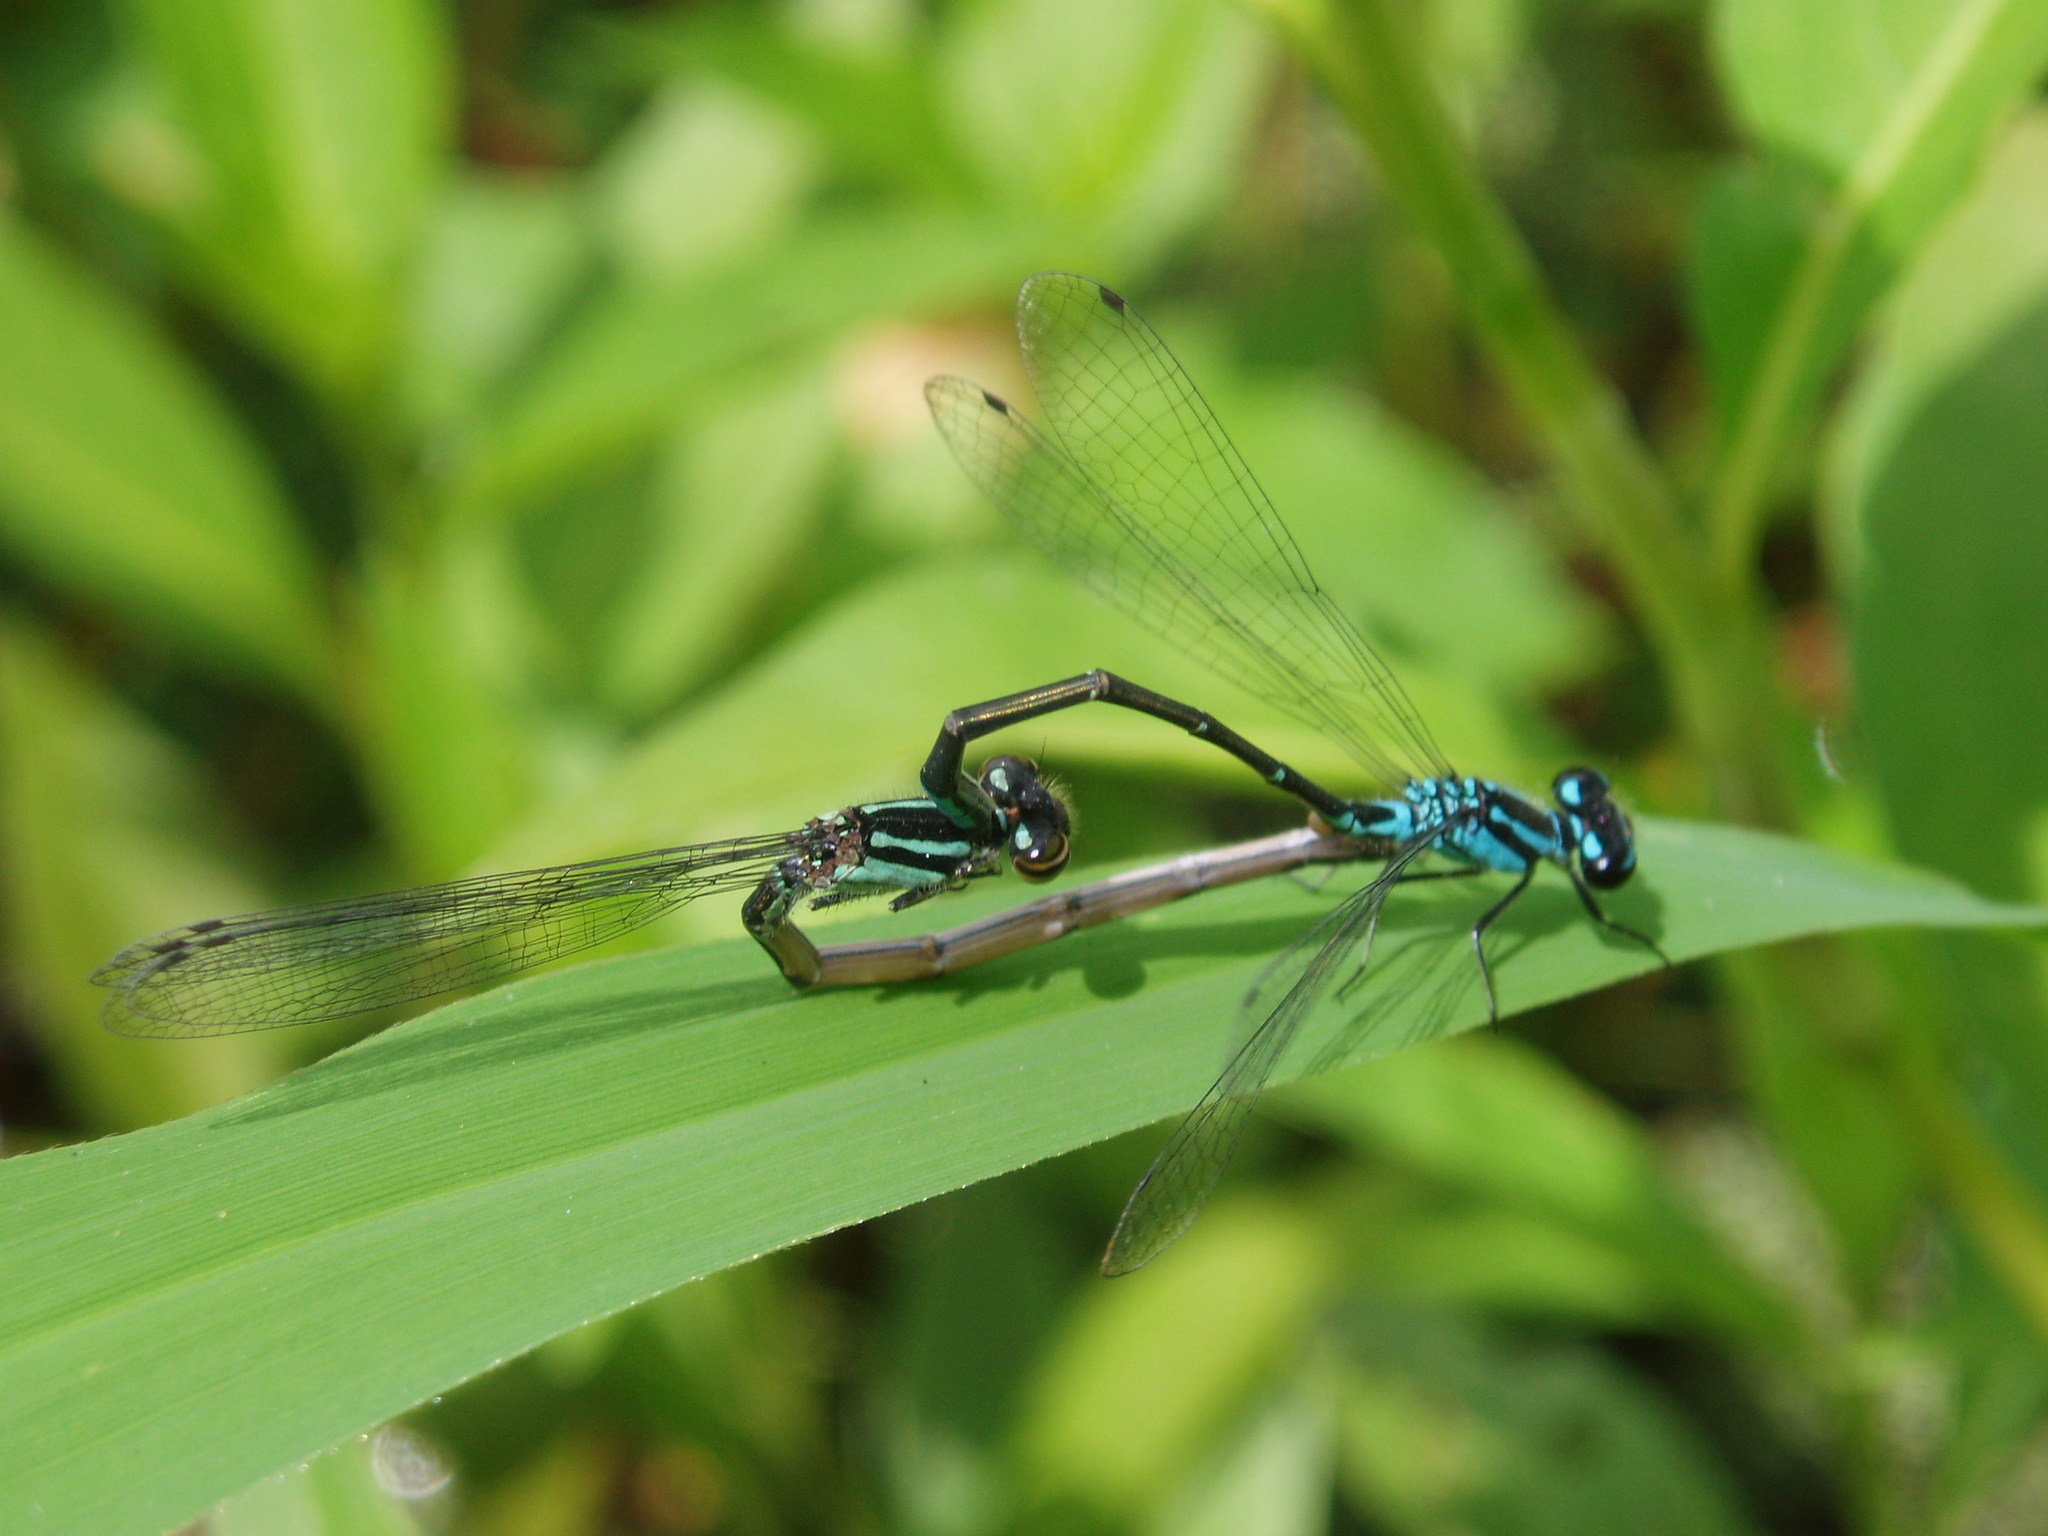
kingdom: Animalia
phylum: Arthropoda
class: Insecta
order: Odonata
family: Coenagrionidae
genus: Enallagma
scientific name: Enallagma geminatum
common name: Skimming bluet
